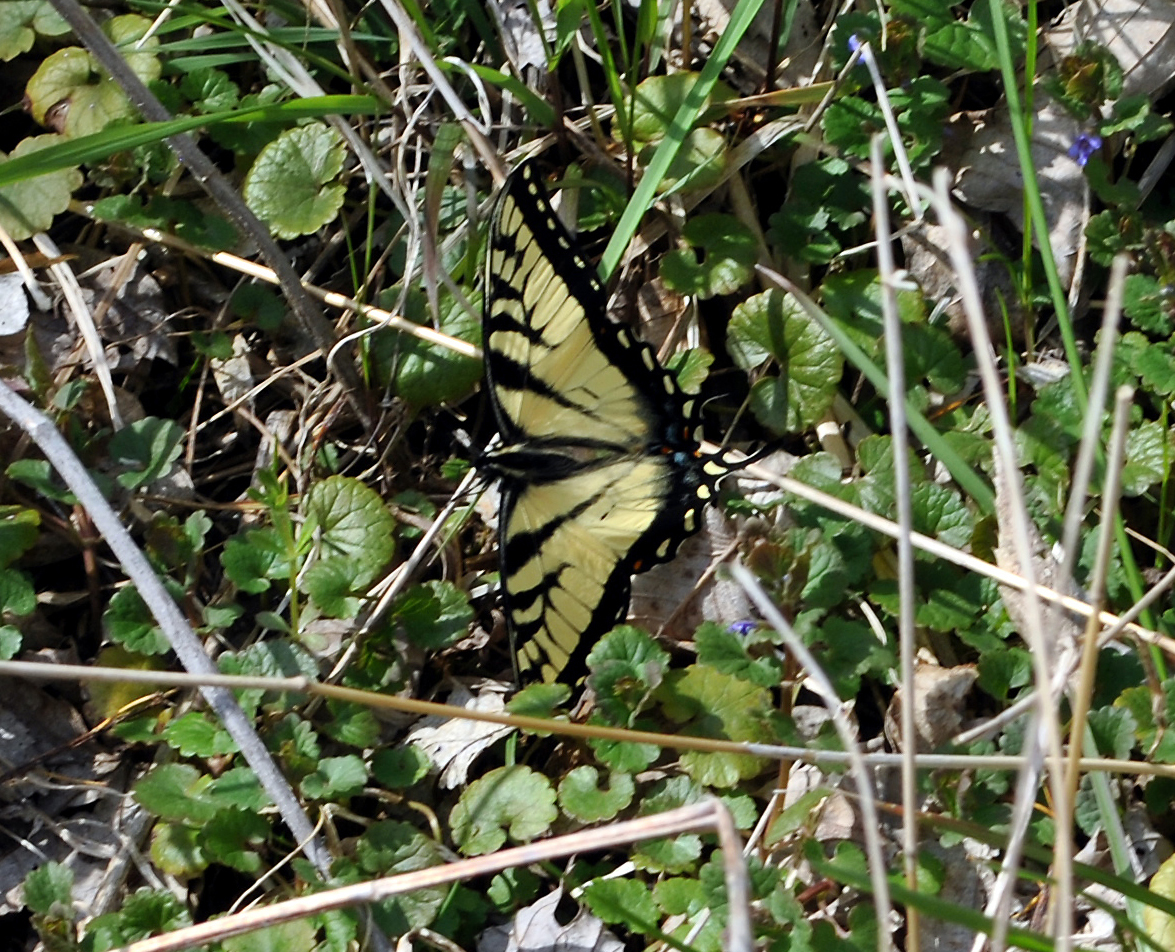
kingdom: Animalia
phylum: Arthropoda
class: Insecta
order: Lepidoptera
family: Papilionidae
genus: Papilio
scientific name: Papilio glaucus
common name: Tiger swallowtail
